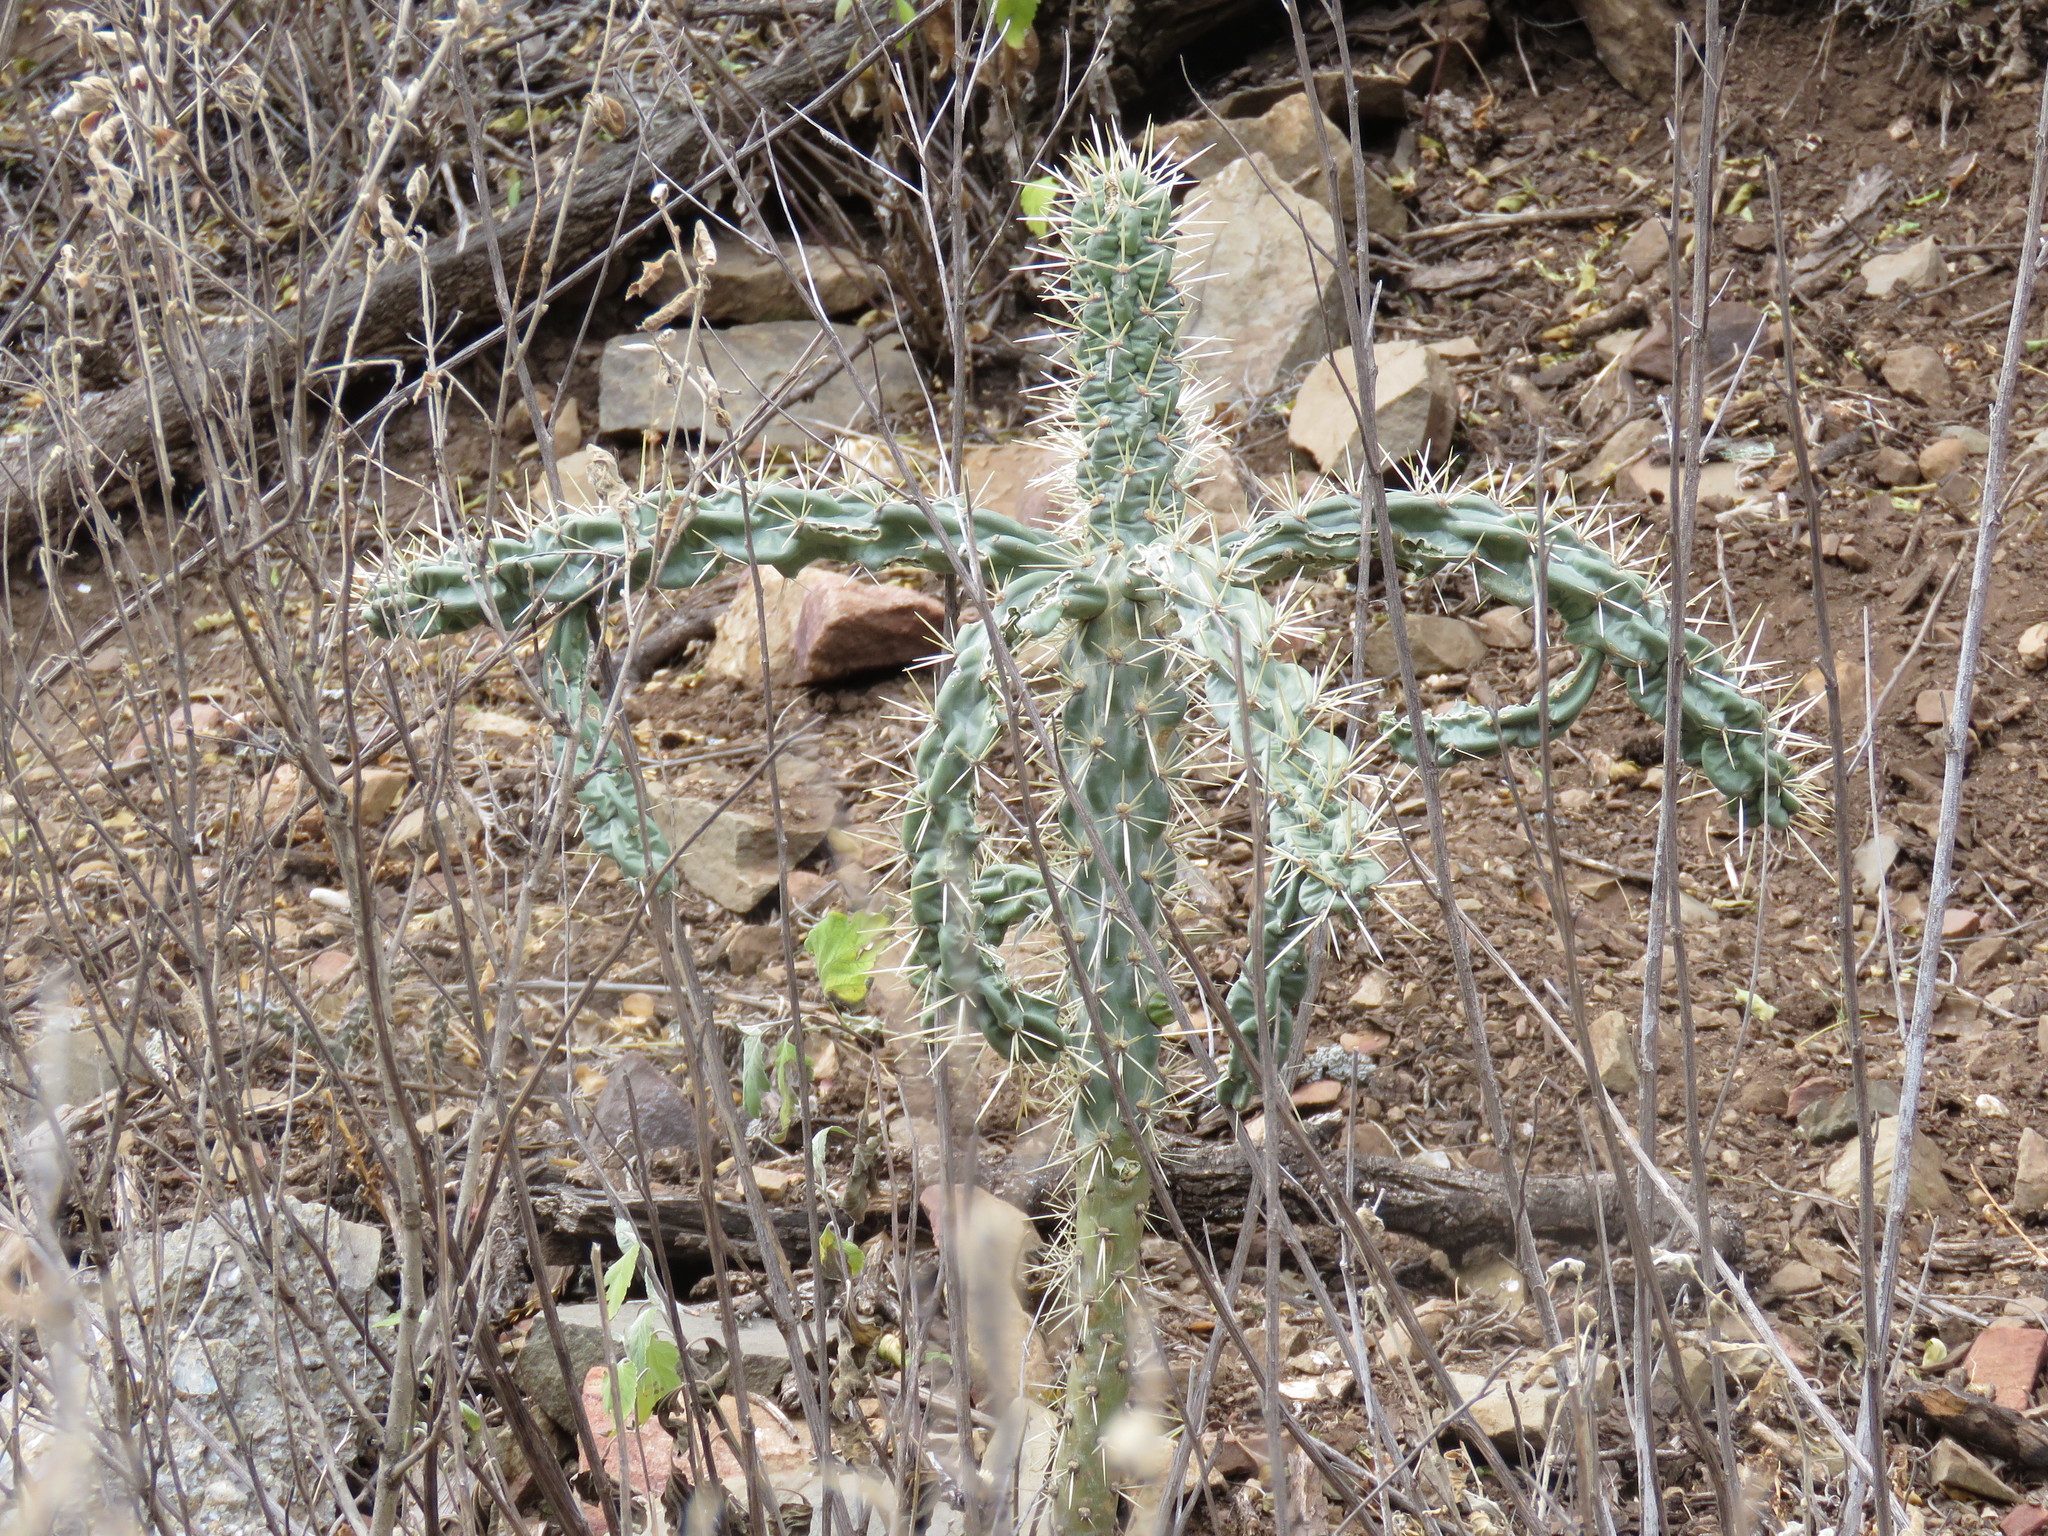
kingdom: Plantae
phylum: Tracheophyta
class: Magnoliopsida
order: Caryophyllales
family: Cactaceae
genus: Cylindropuntia
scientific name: Cylindropuntia imbricata
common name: Candelabrum cactus
